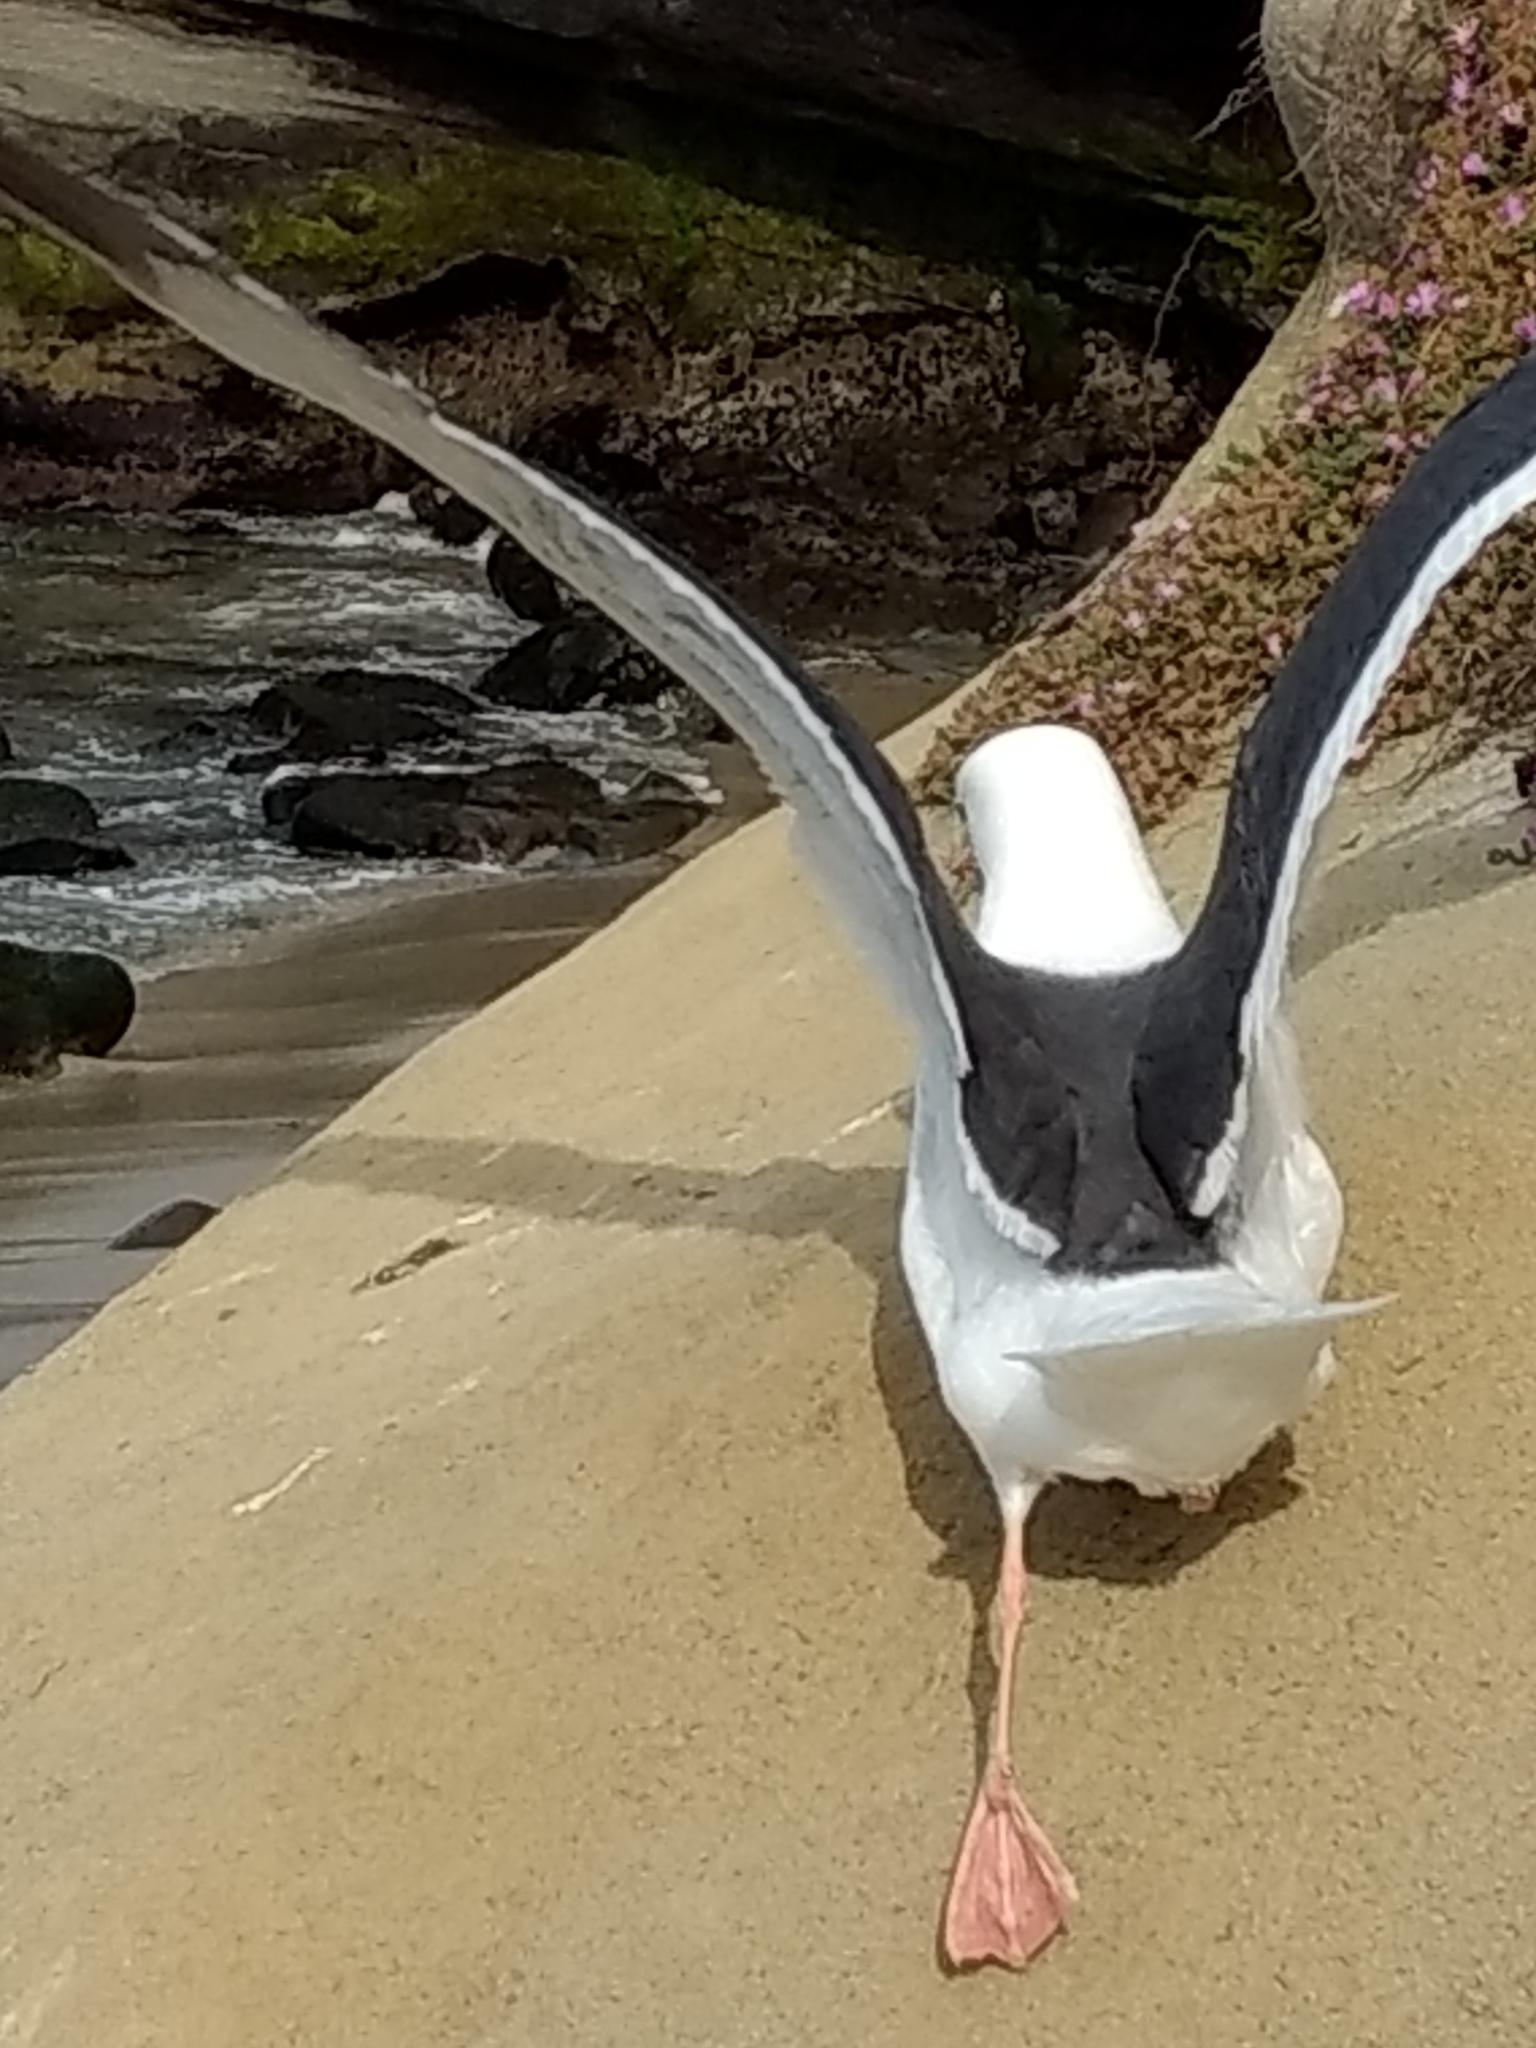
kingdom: Animalia
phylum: Chordata
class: Aves
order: Charadriiformes
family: Laridae
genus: Larus
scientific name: Larus occidentalis
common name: Western gull
